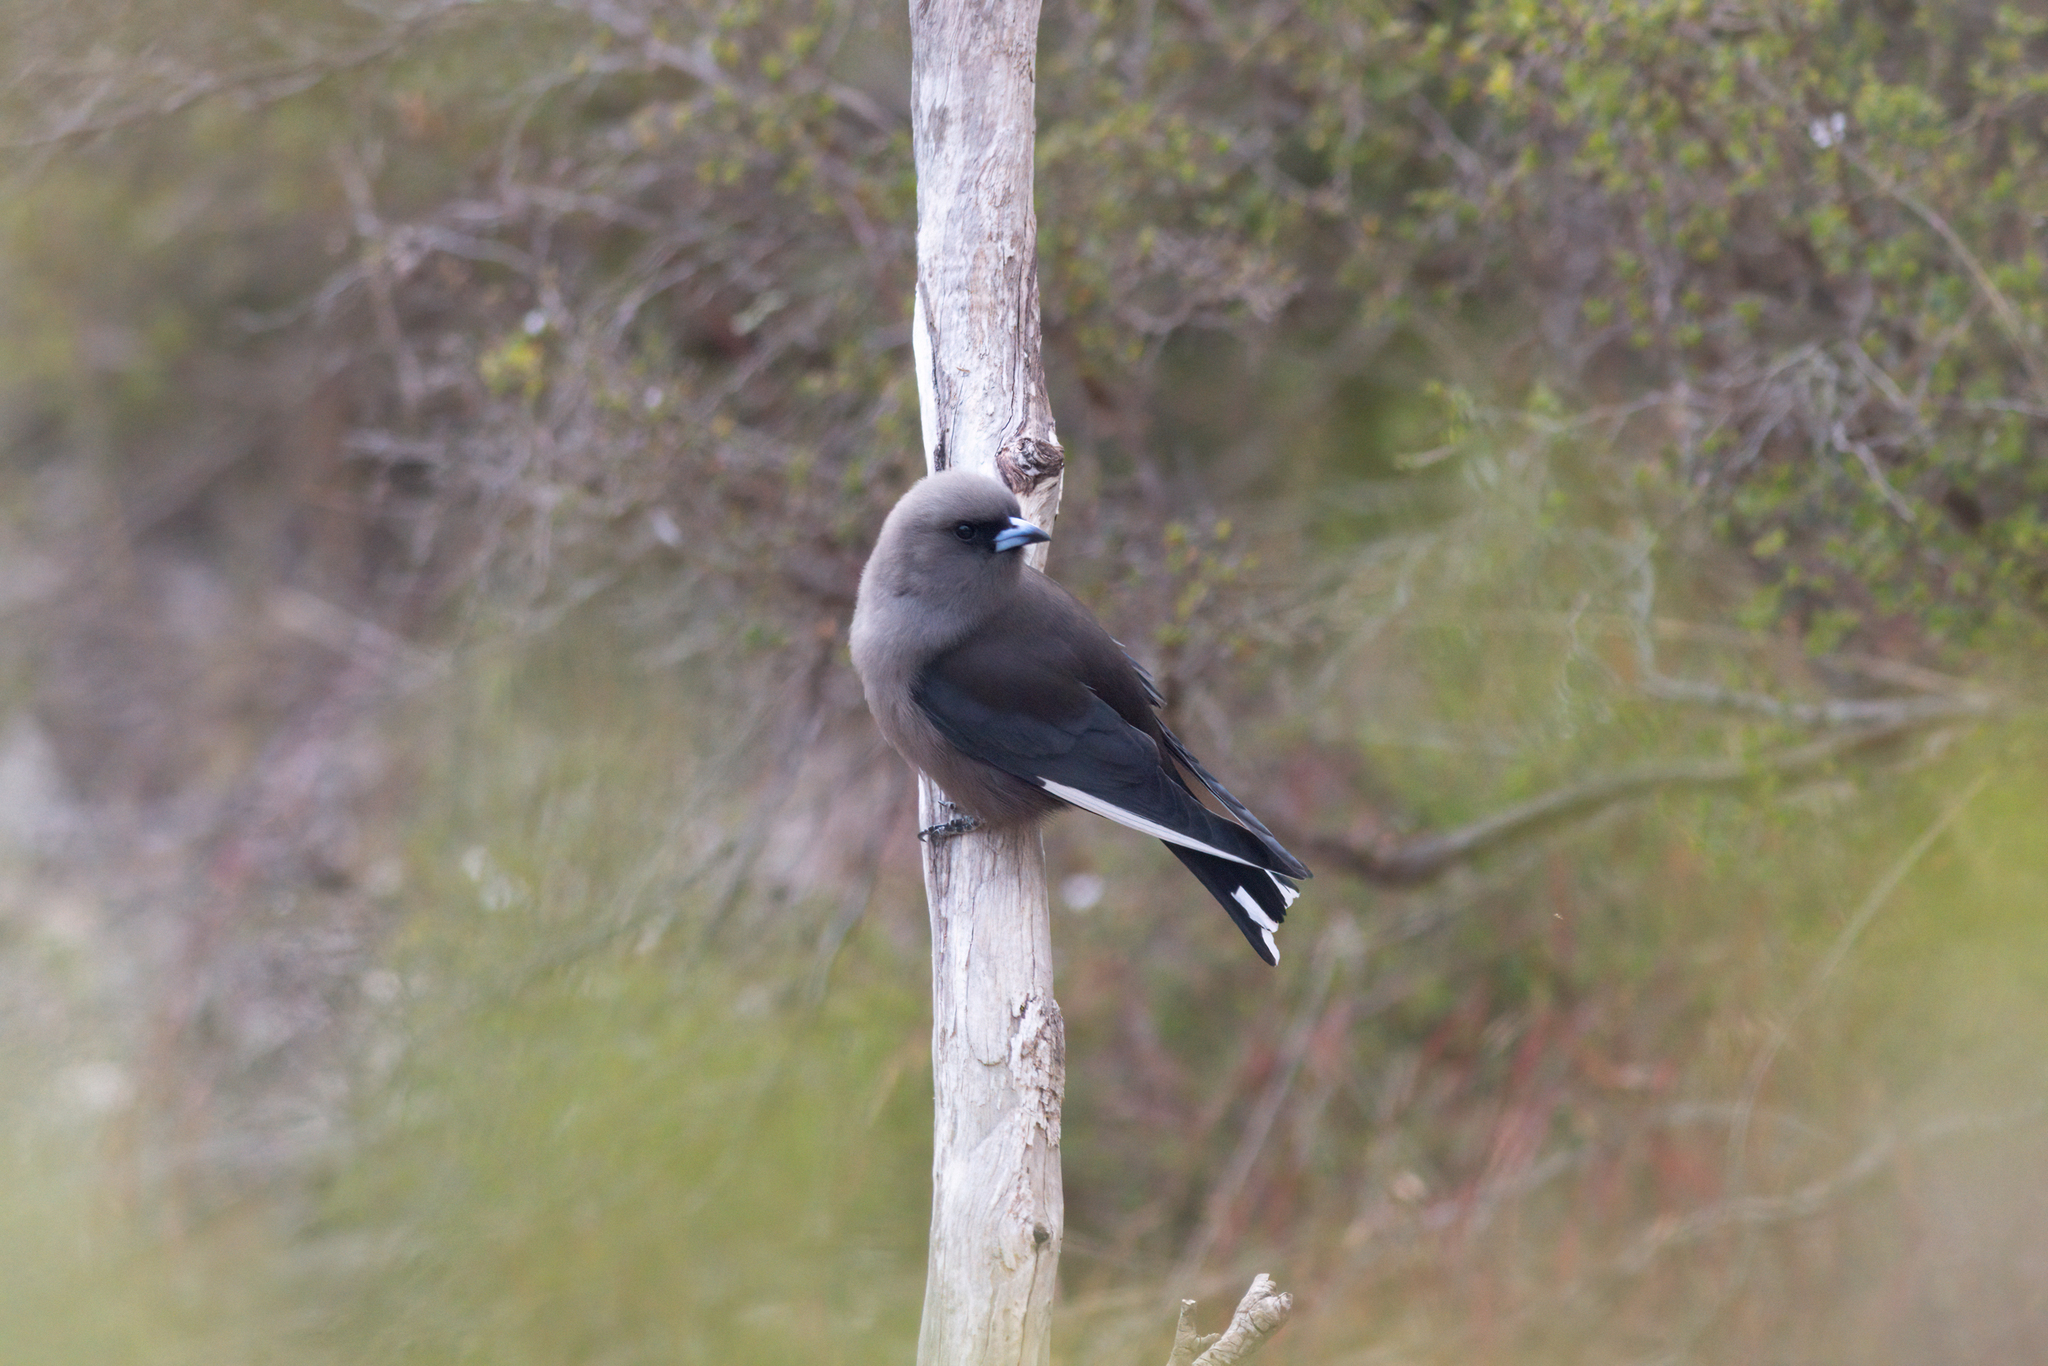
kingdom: Animalia
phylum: Chordata
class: Aves
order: Passeriformes
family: Artamidae
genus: Artamus
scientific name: Artamus cyanopterus
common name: Dusky woodswallow
